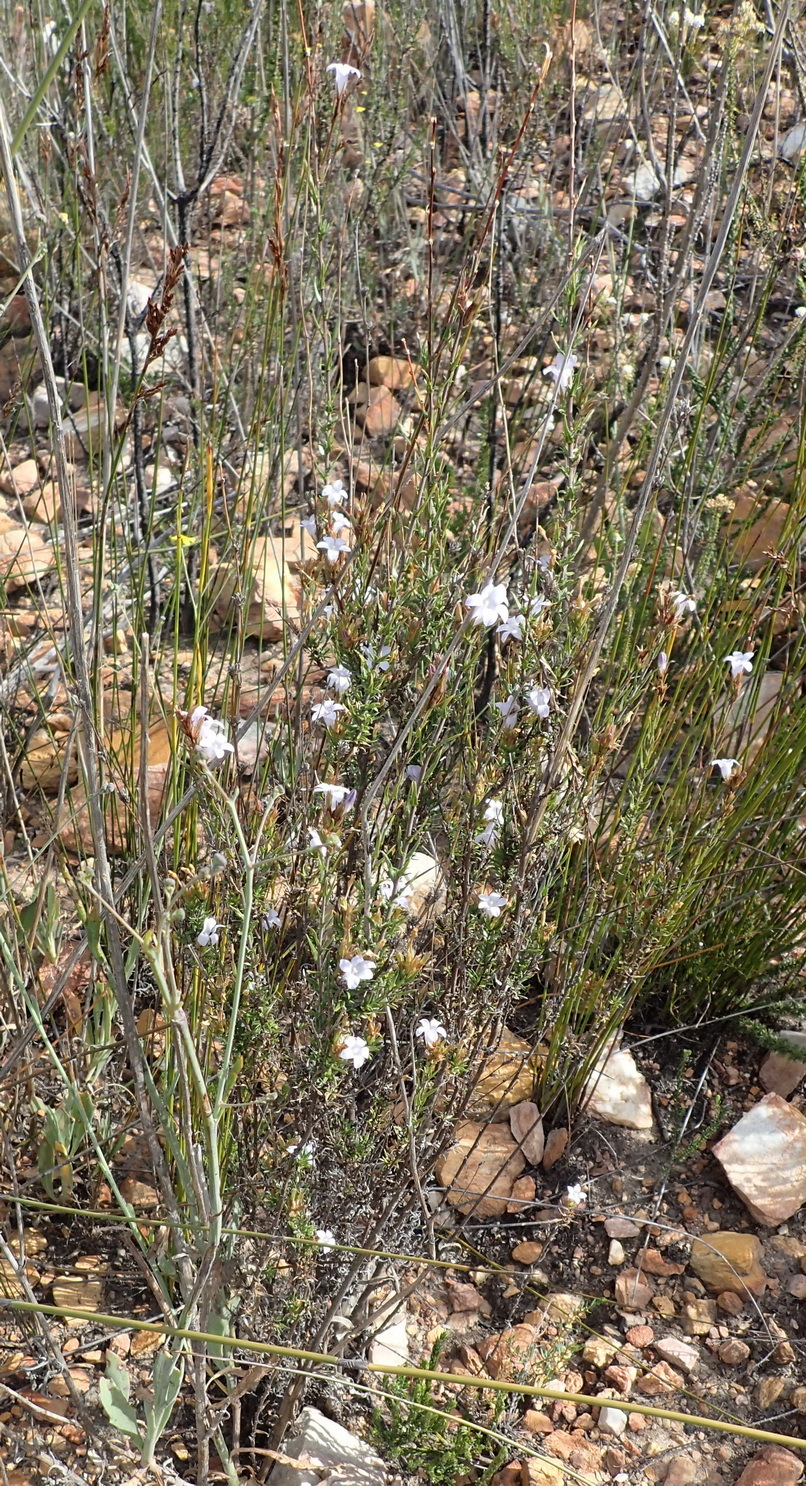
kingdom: Plantae
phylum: Tracheophyta
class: Magnoliopsida
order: Asterales
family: Campanulaceae
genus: Prismatocarpus
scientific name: Prismatocarpus candolleanus
